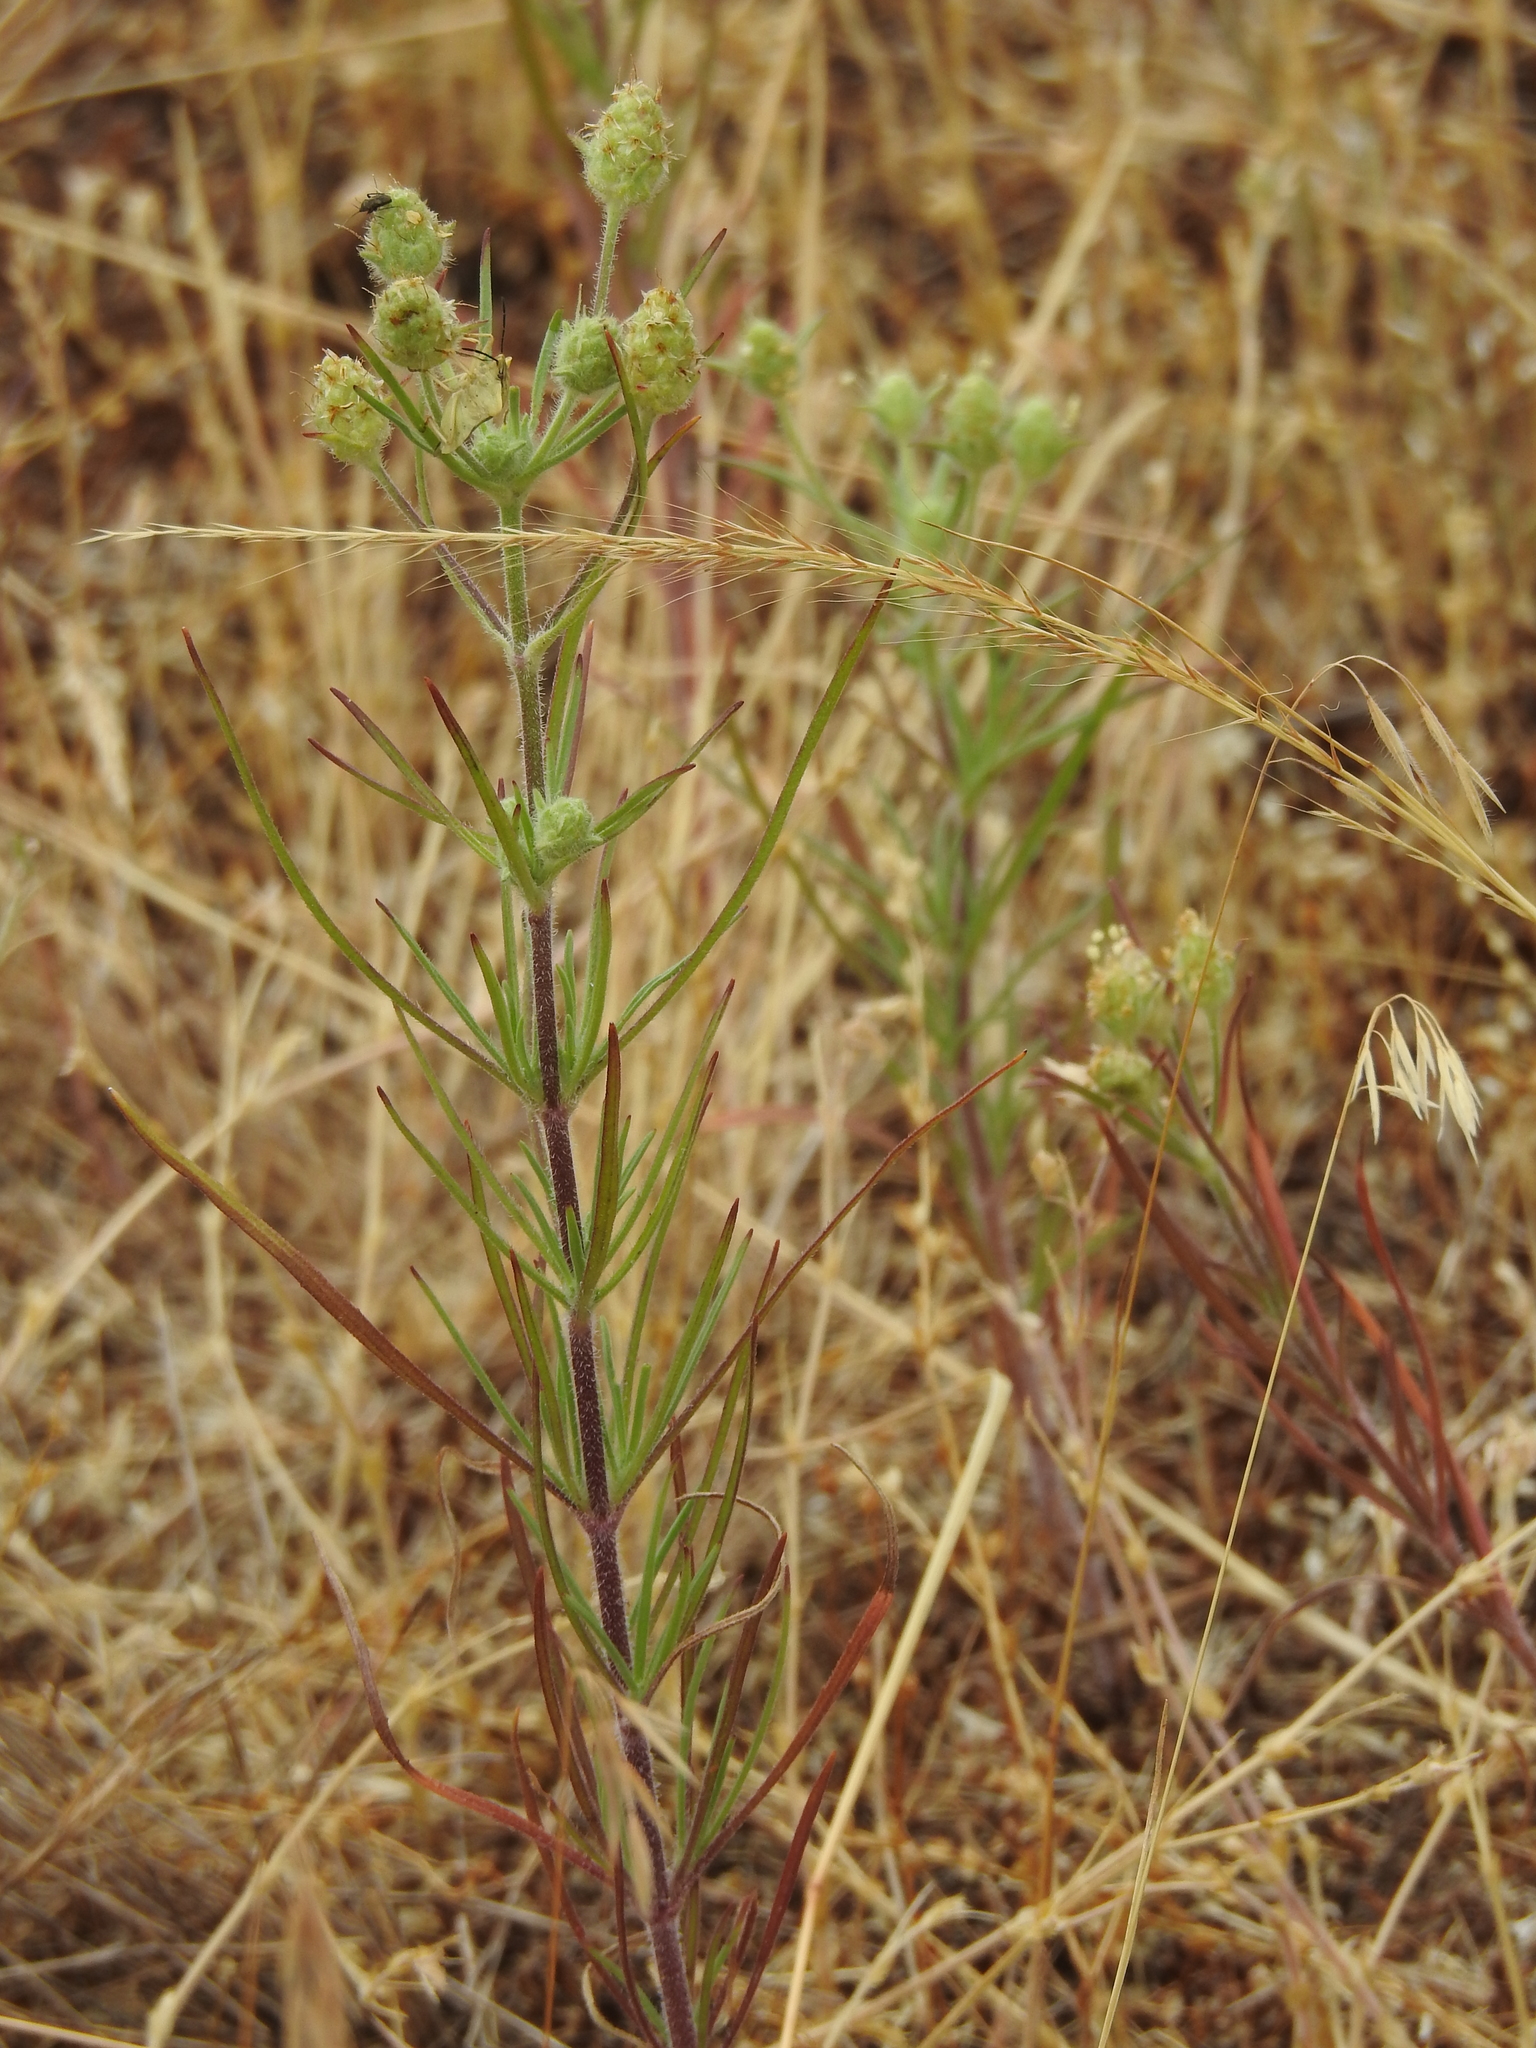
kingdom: Plantae
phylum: Tracheophyta
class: Magnoliopsida
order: Lamiales
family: Plantaginaceae
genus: Plantago
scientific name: Plantago arenaria
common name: Branched plantain
